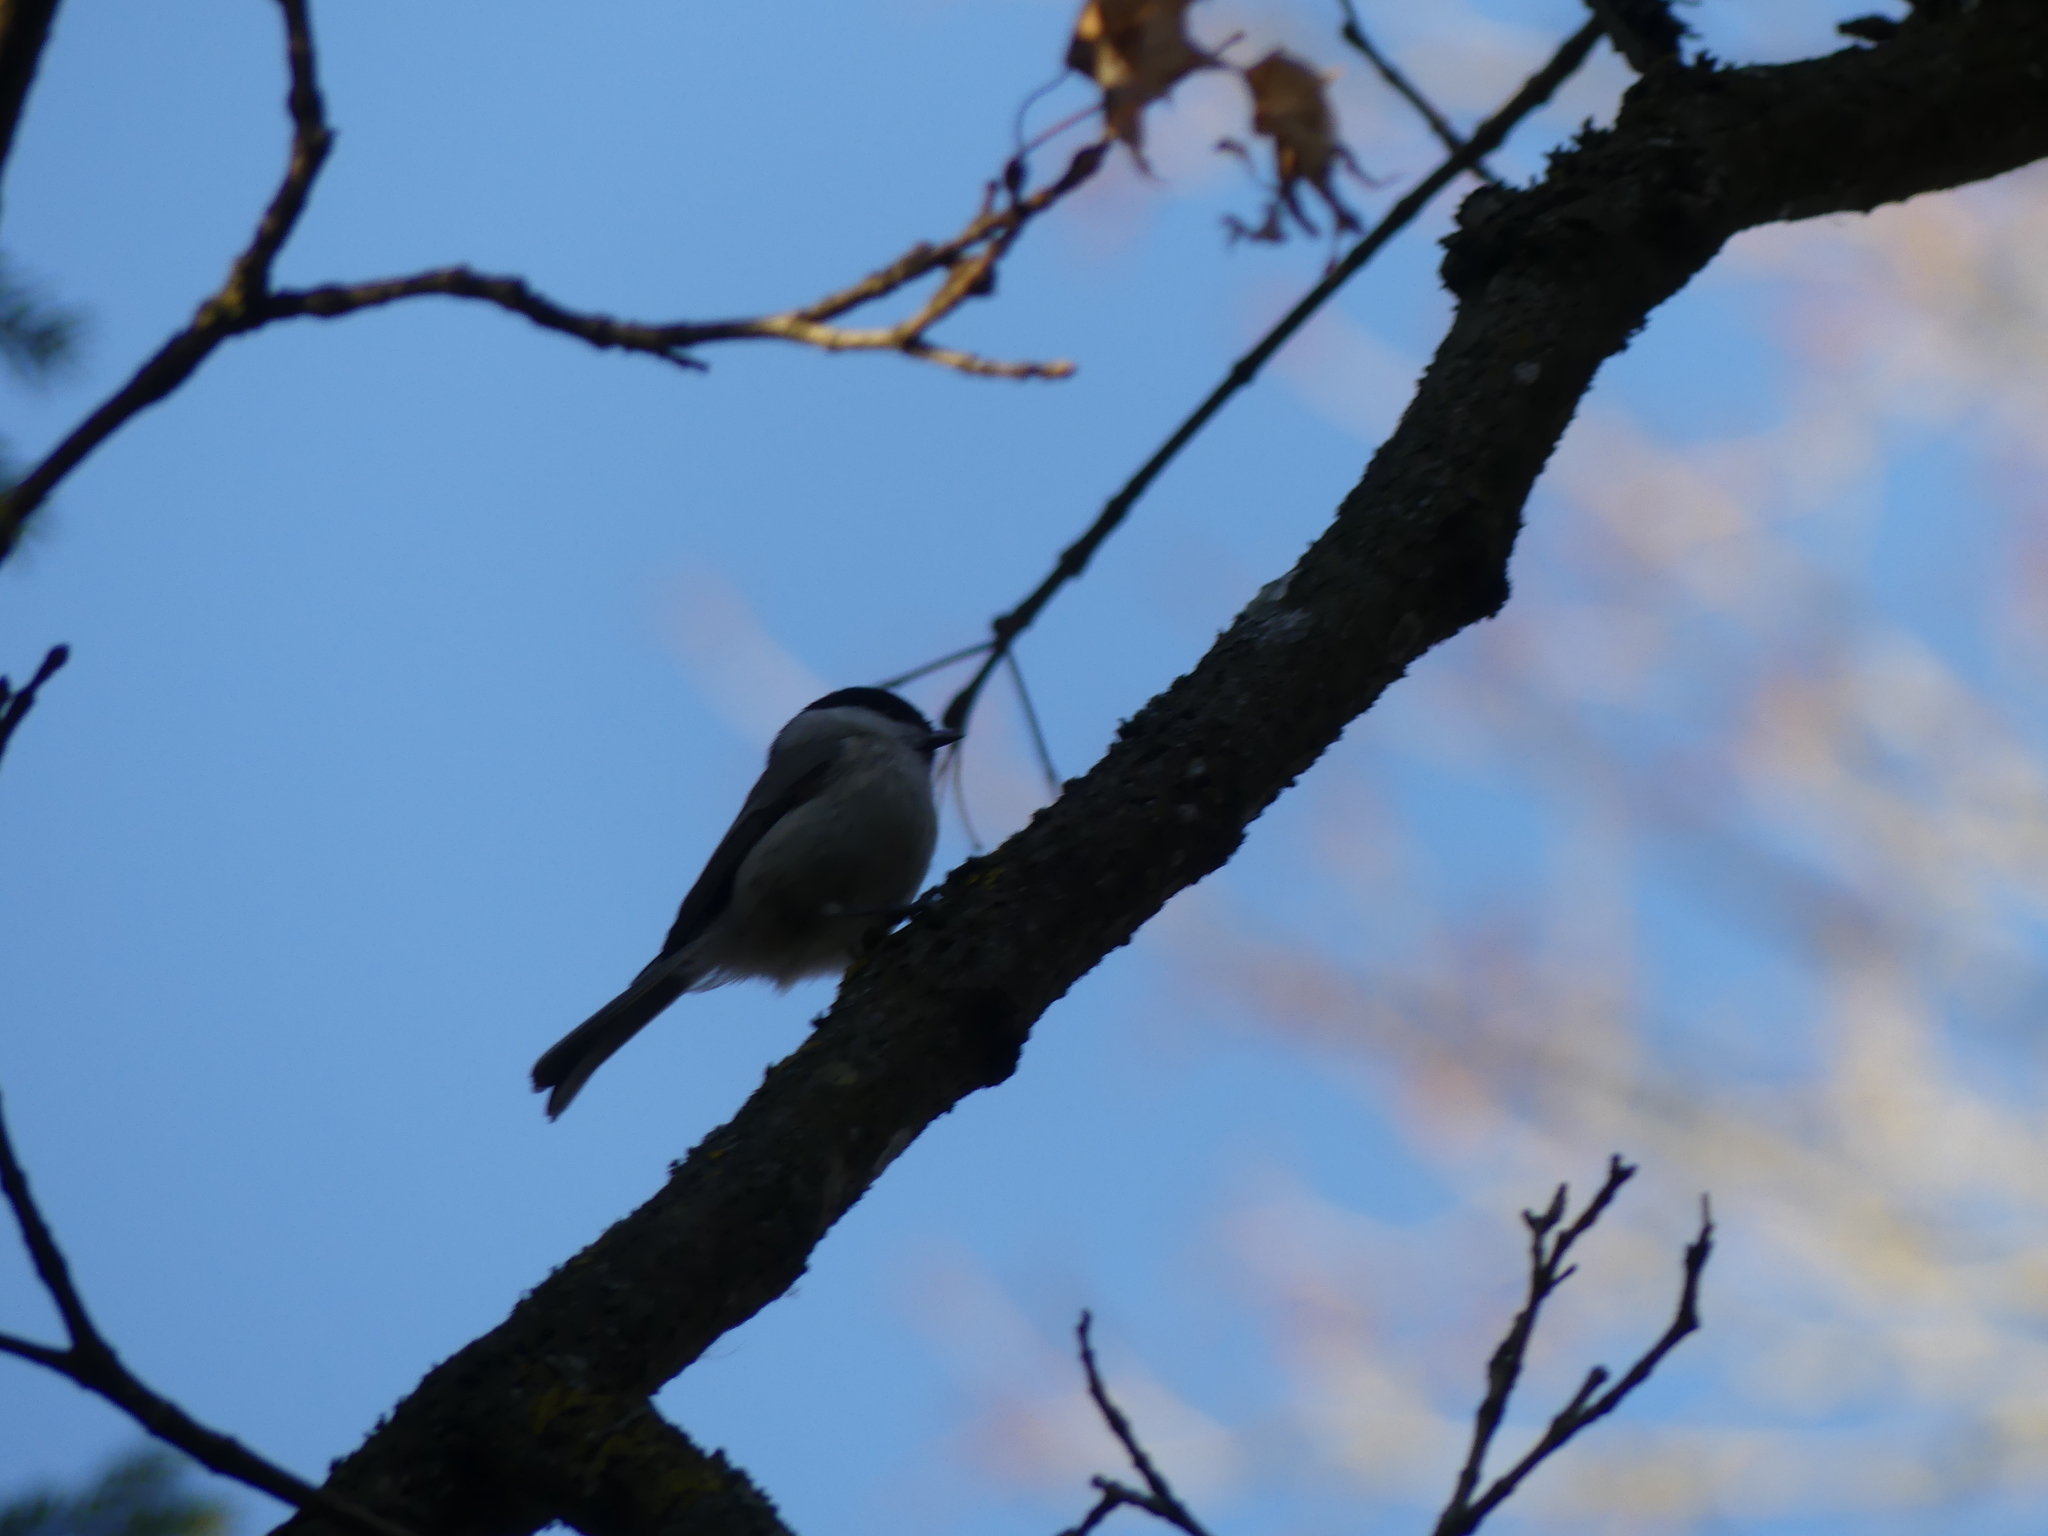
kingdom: Animalia
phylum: Chordata
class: Aves
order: Passeriformes
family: Paridae
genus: Poecile
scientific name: Poecile palustris
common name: Marsh tit
